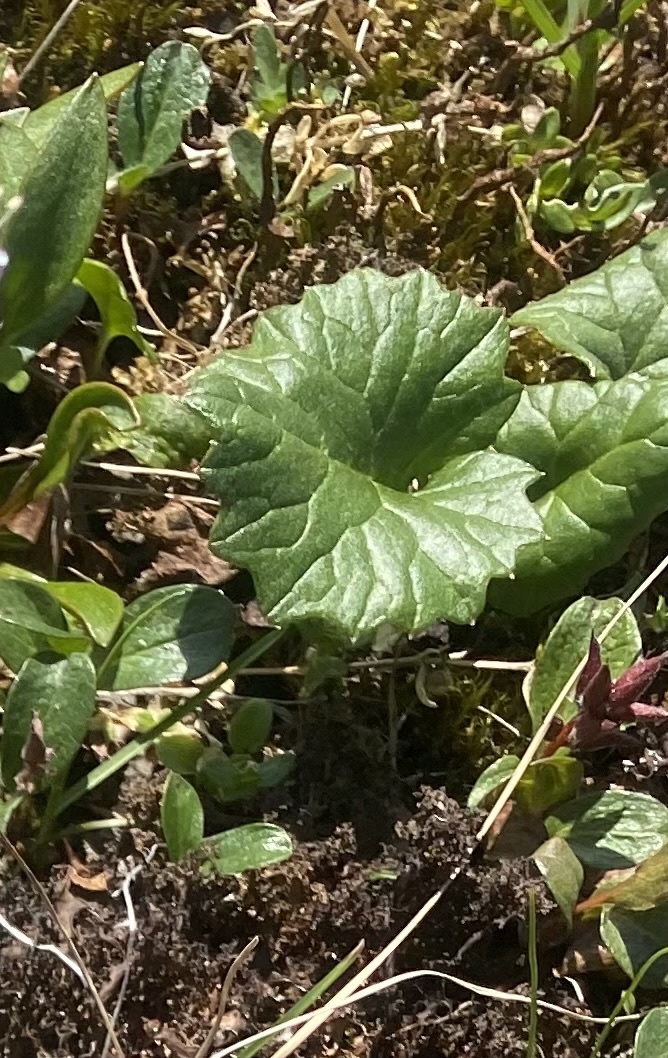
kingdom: Plantae
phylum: Tracheophyta
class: Magnoliopsida
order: Asterales
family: Asteraceae
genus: Endocellion
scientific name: Endocellion glaciale
